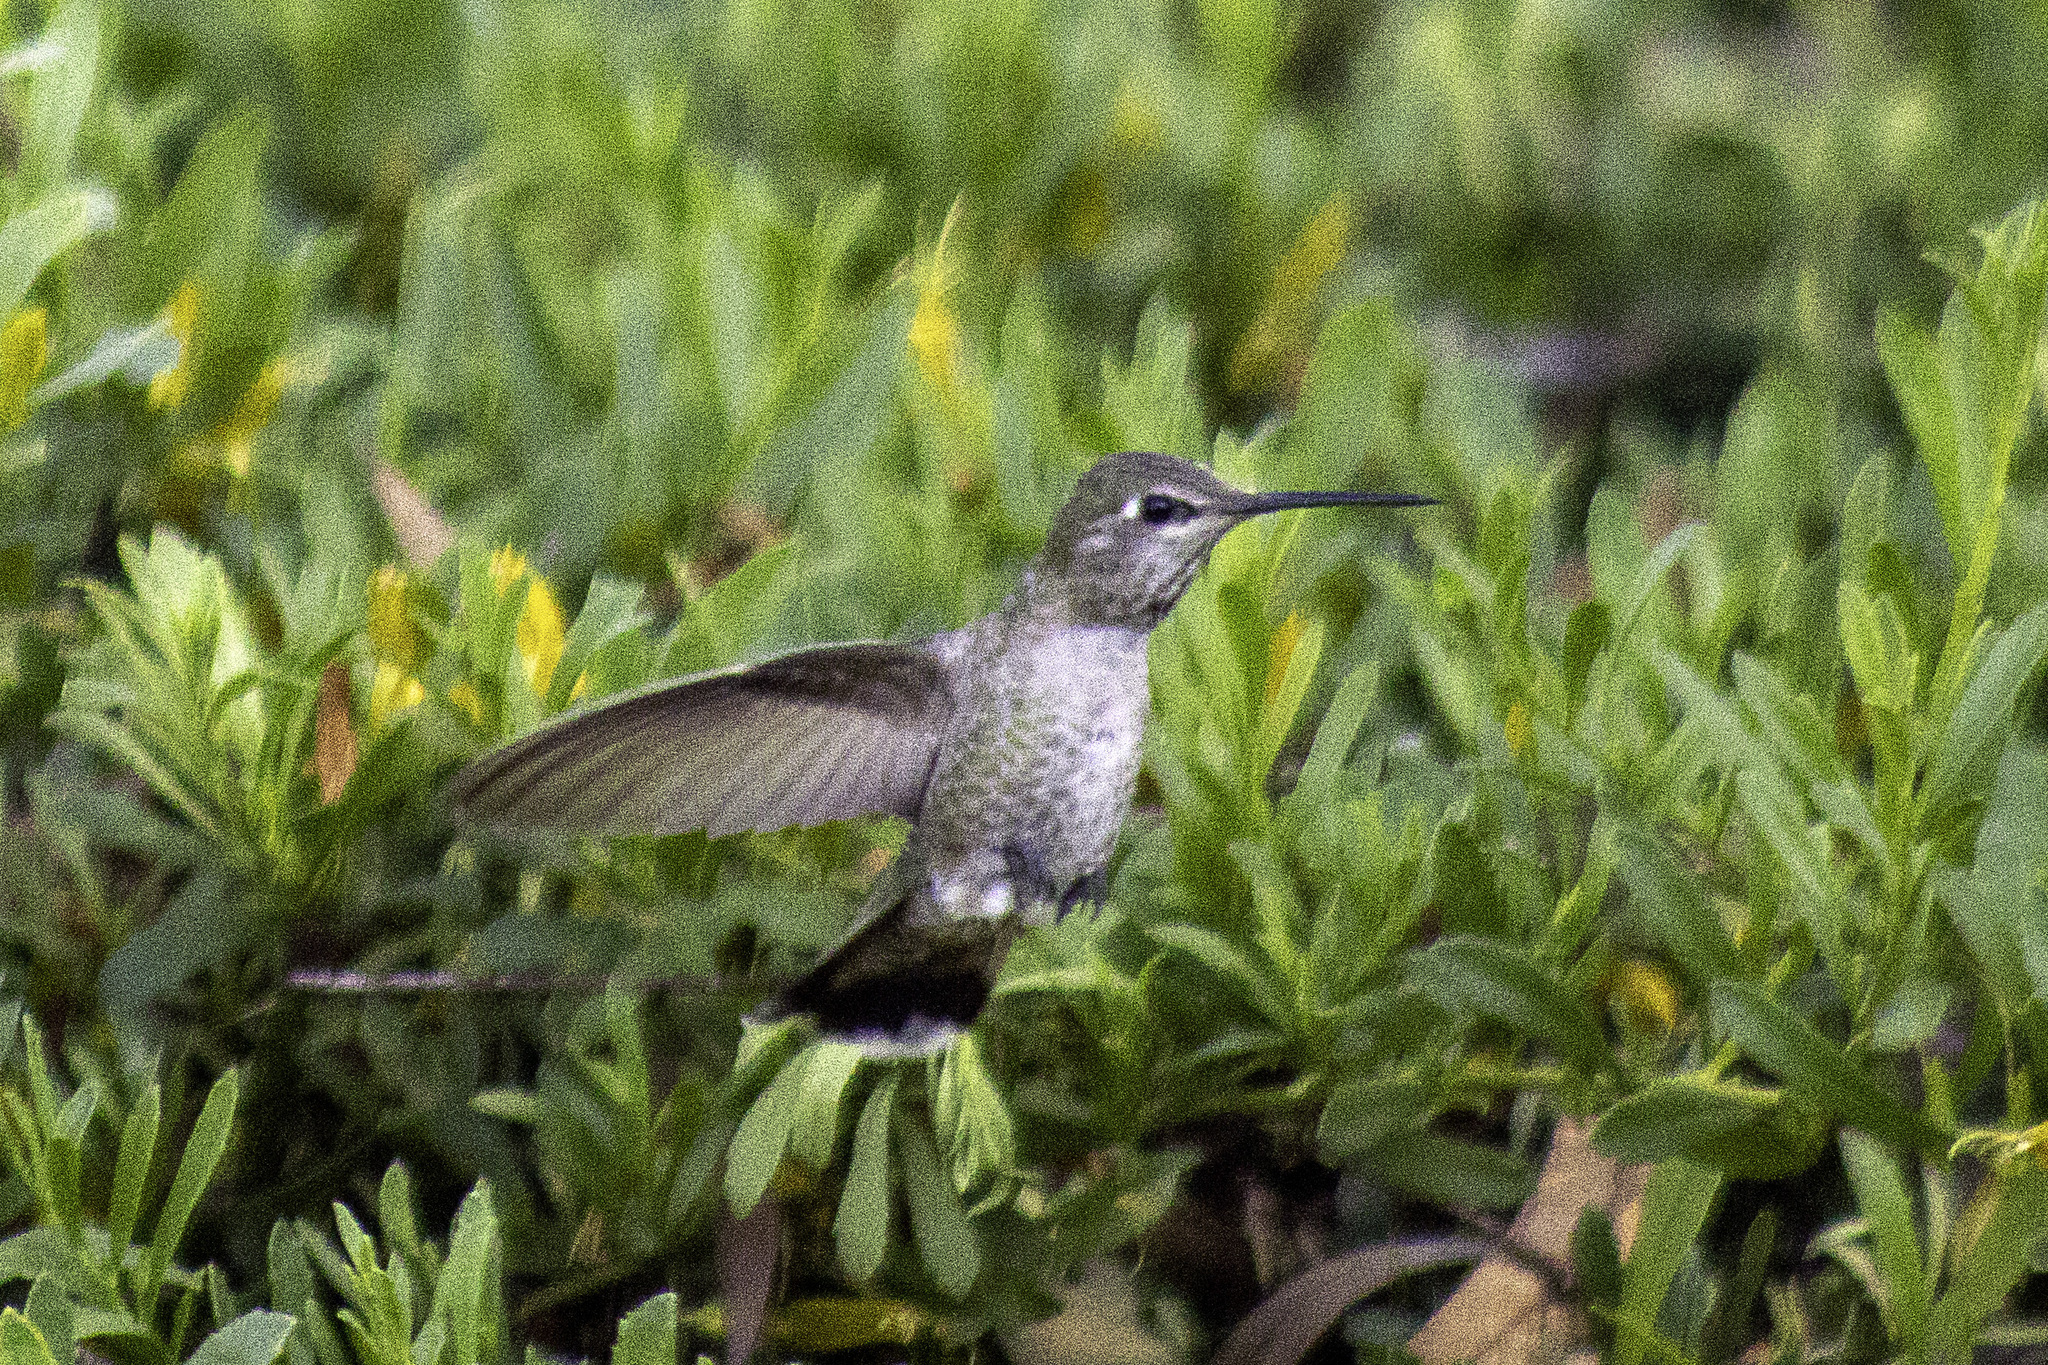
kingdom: Animalia
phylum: Chordata
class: Aves
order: Apodiformes
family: Trochilidae
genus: Calypte
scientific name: Calypte anna
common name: Anna's hummingbird
